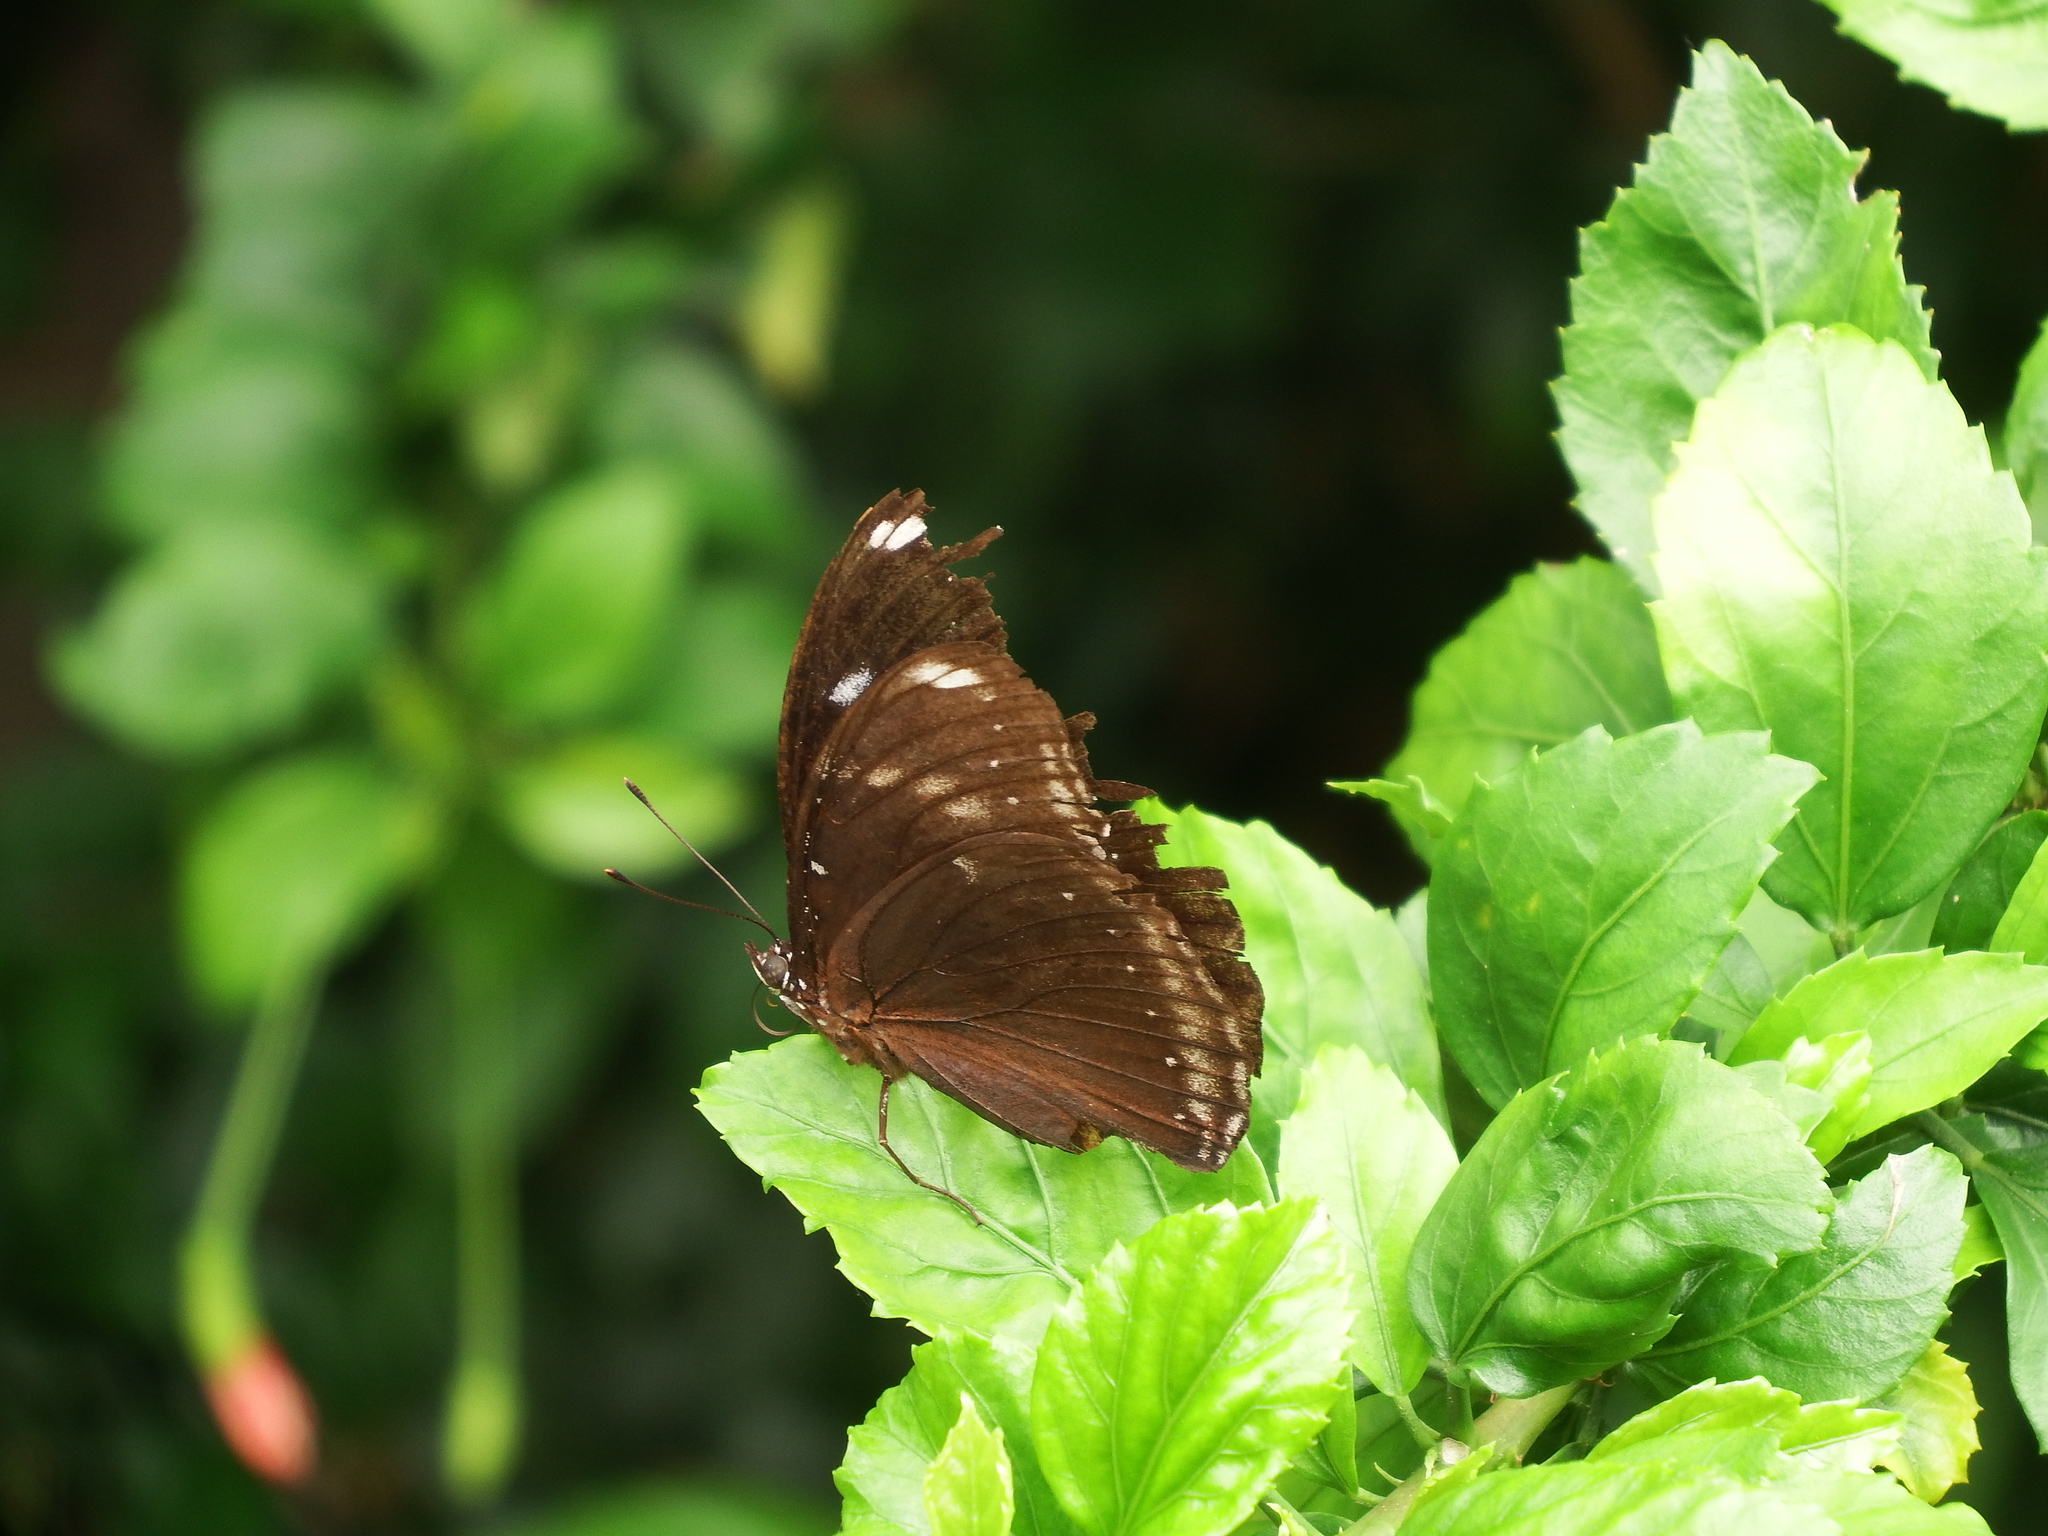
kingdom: Animalia
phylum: Arthropoda
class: Insecta
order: Lepidoptera
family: Nymphalidae
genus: Hypolimnas
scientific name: Hypolimnas bolina
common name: Great eggfly
